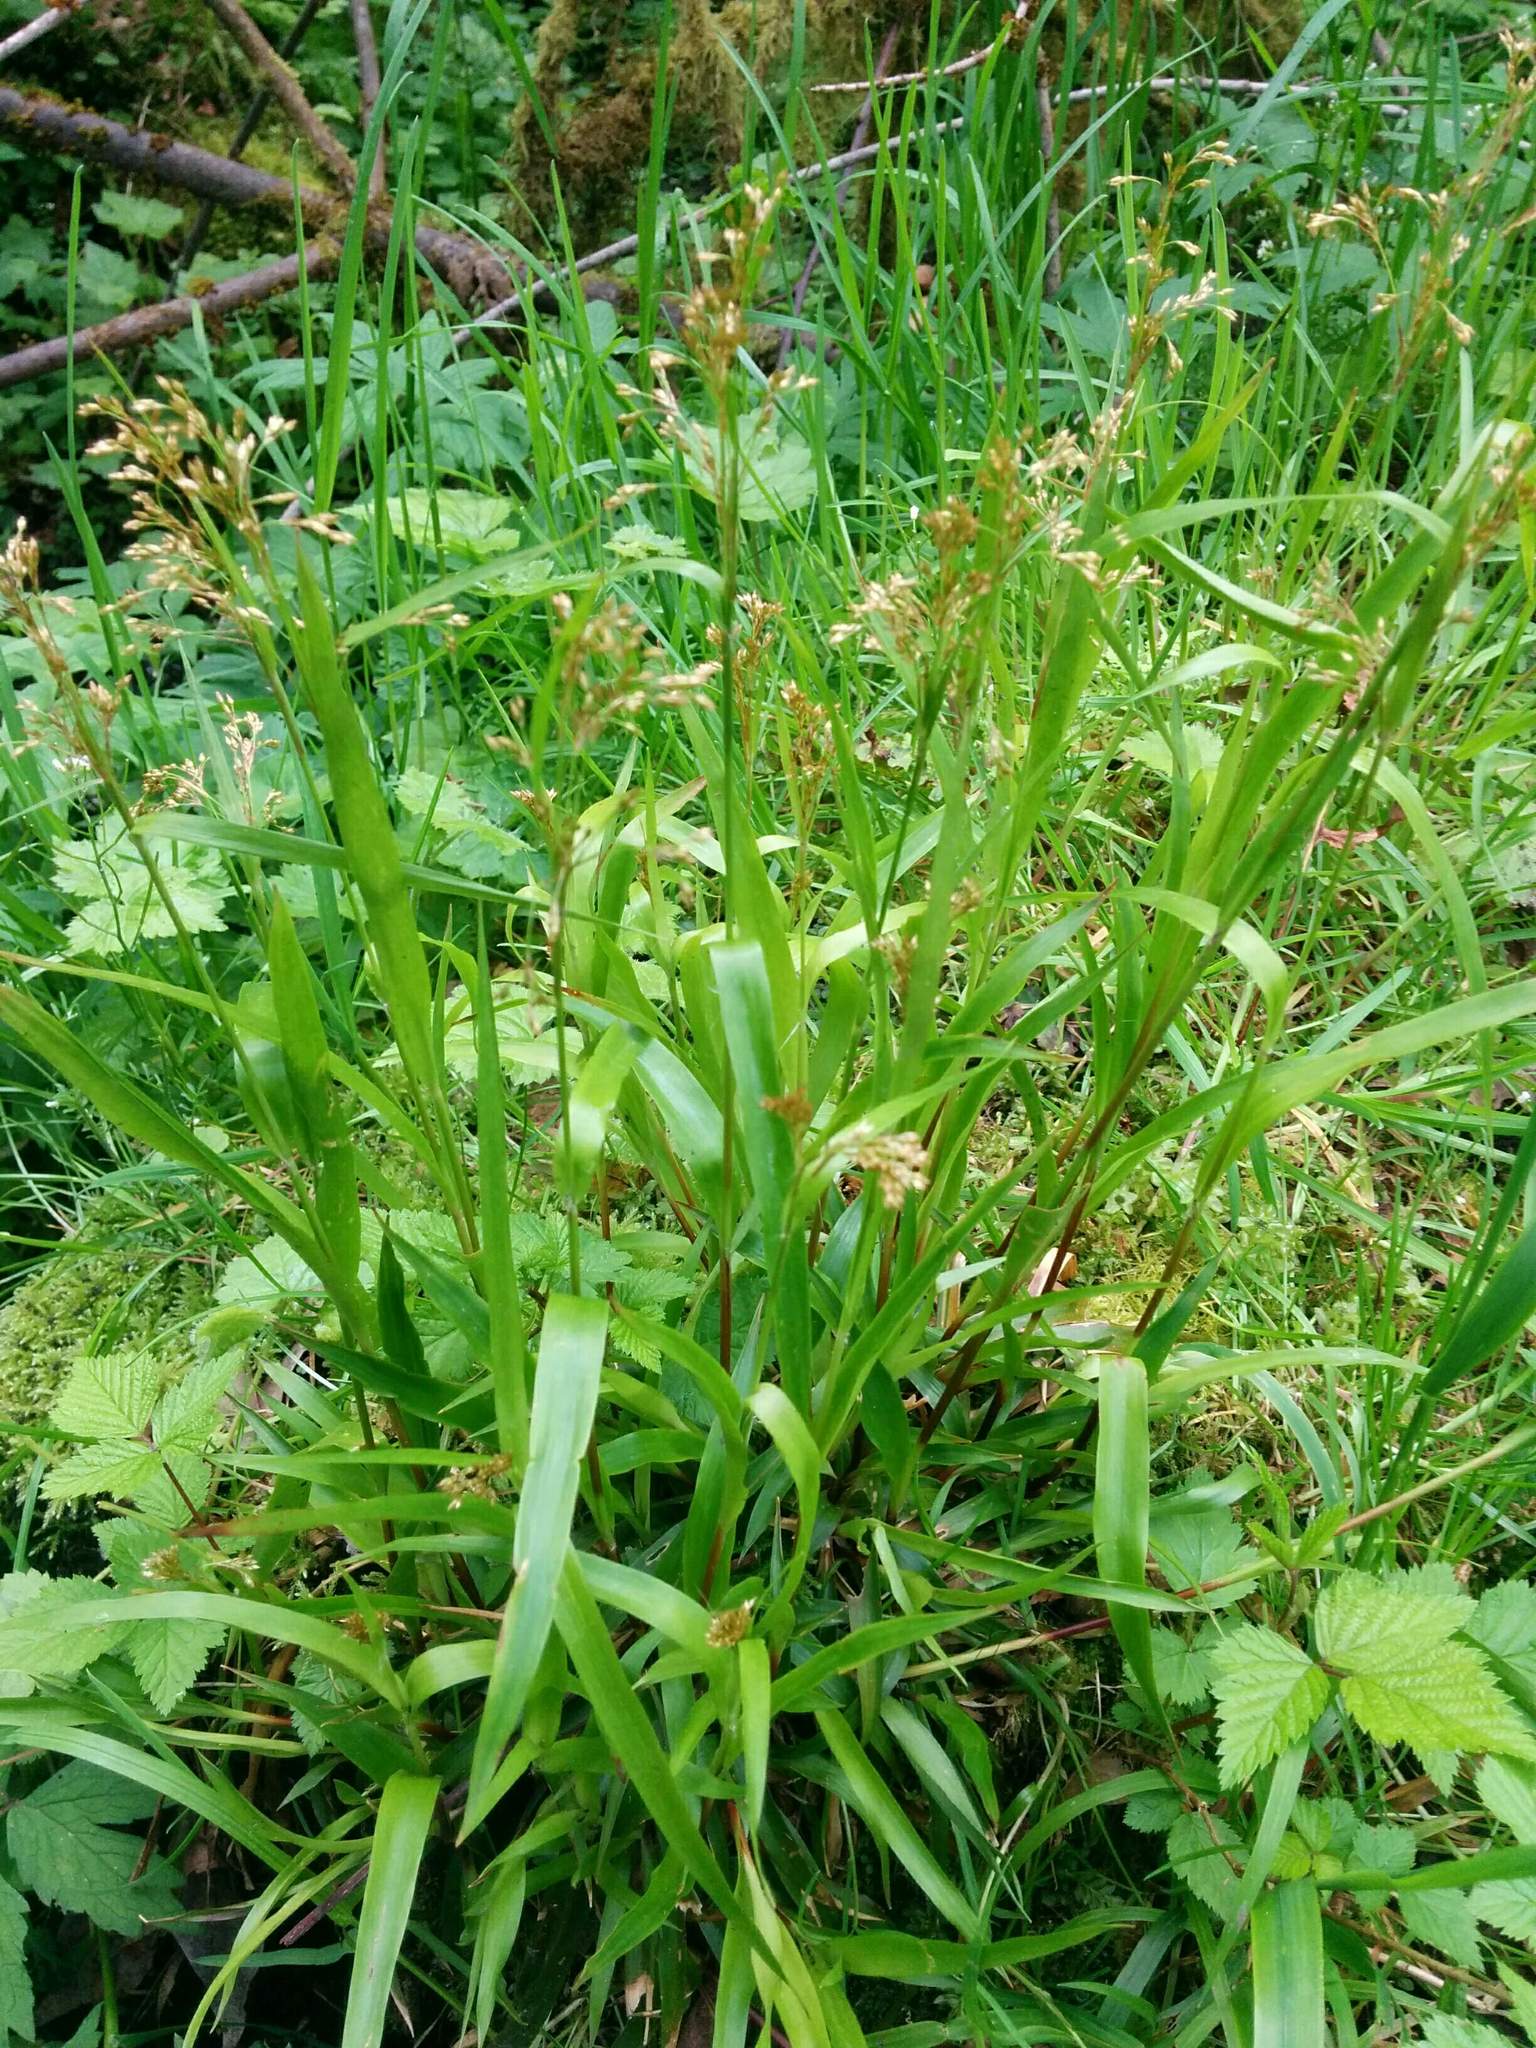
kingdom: Plantae
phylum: Tracheophyta
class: Liliopsida
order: Poales
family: Juncaceae
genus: Luzula
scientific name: Luzula parviflora
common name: Millet woodrush
